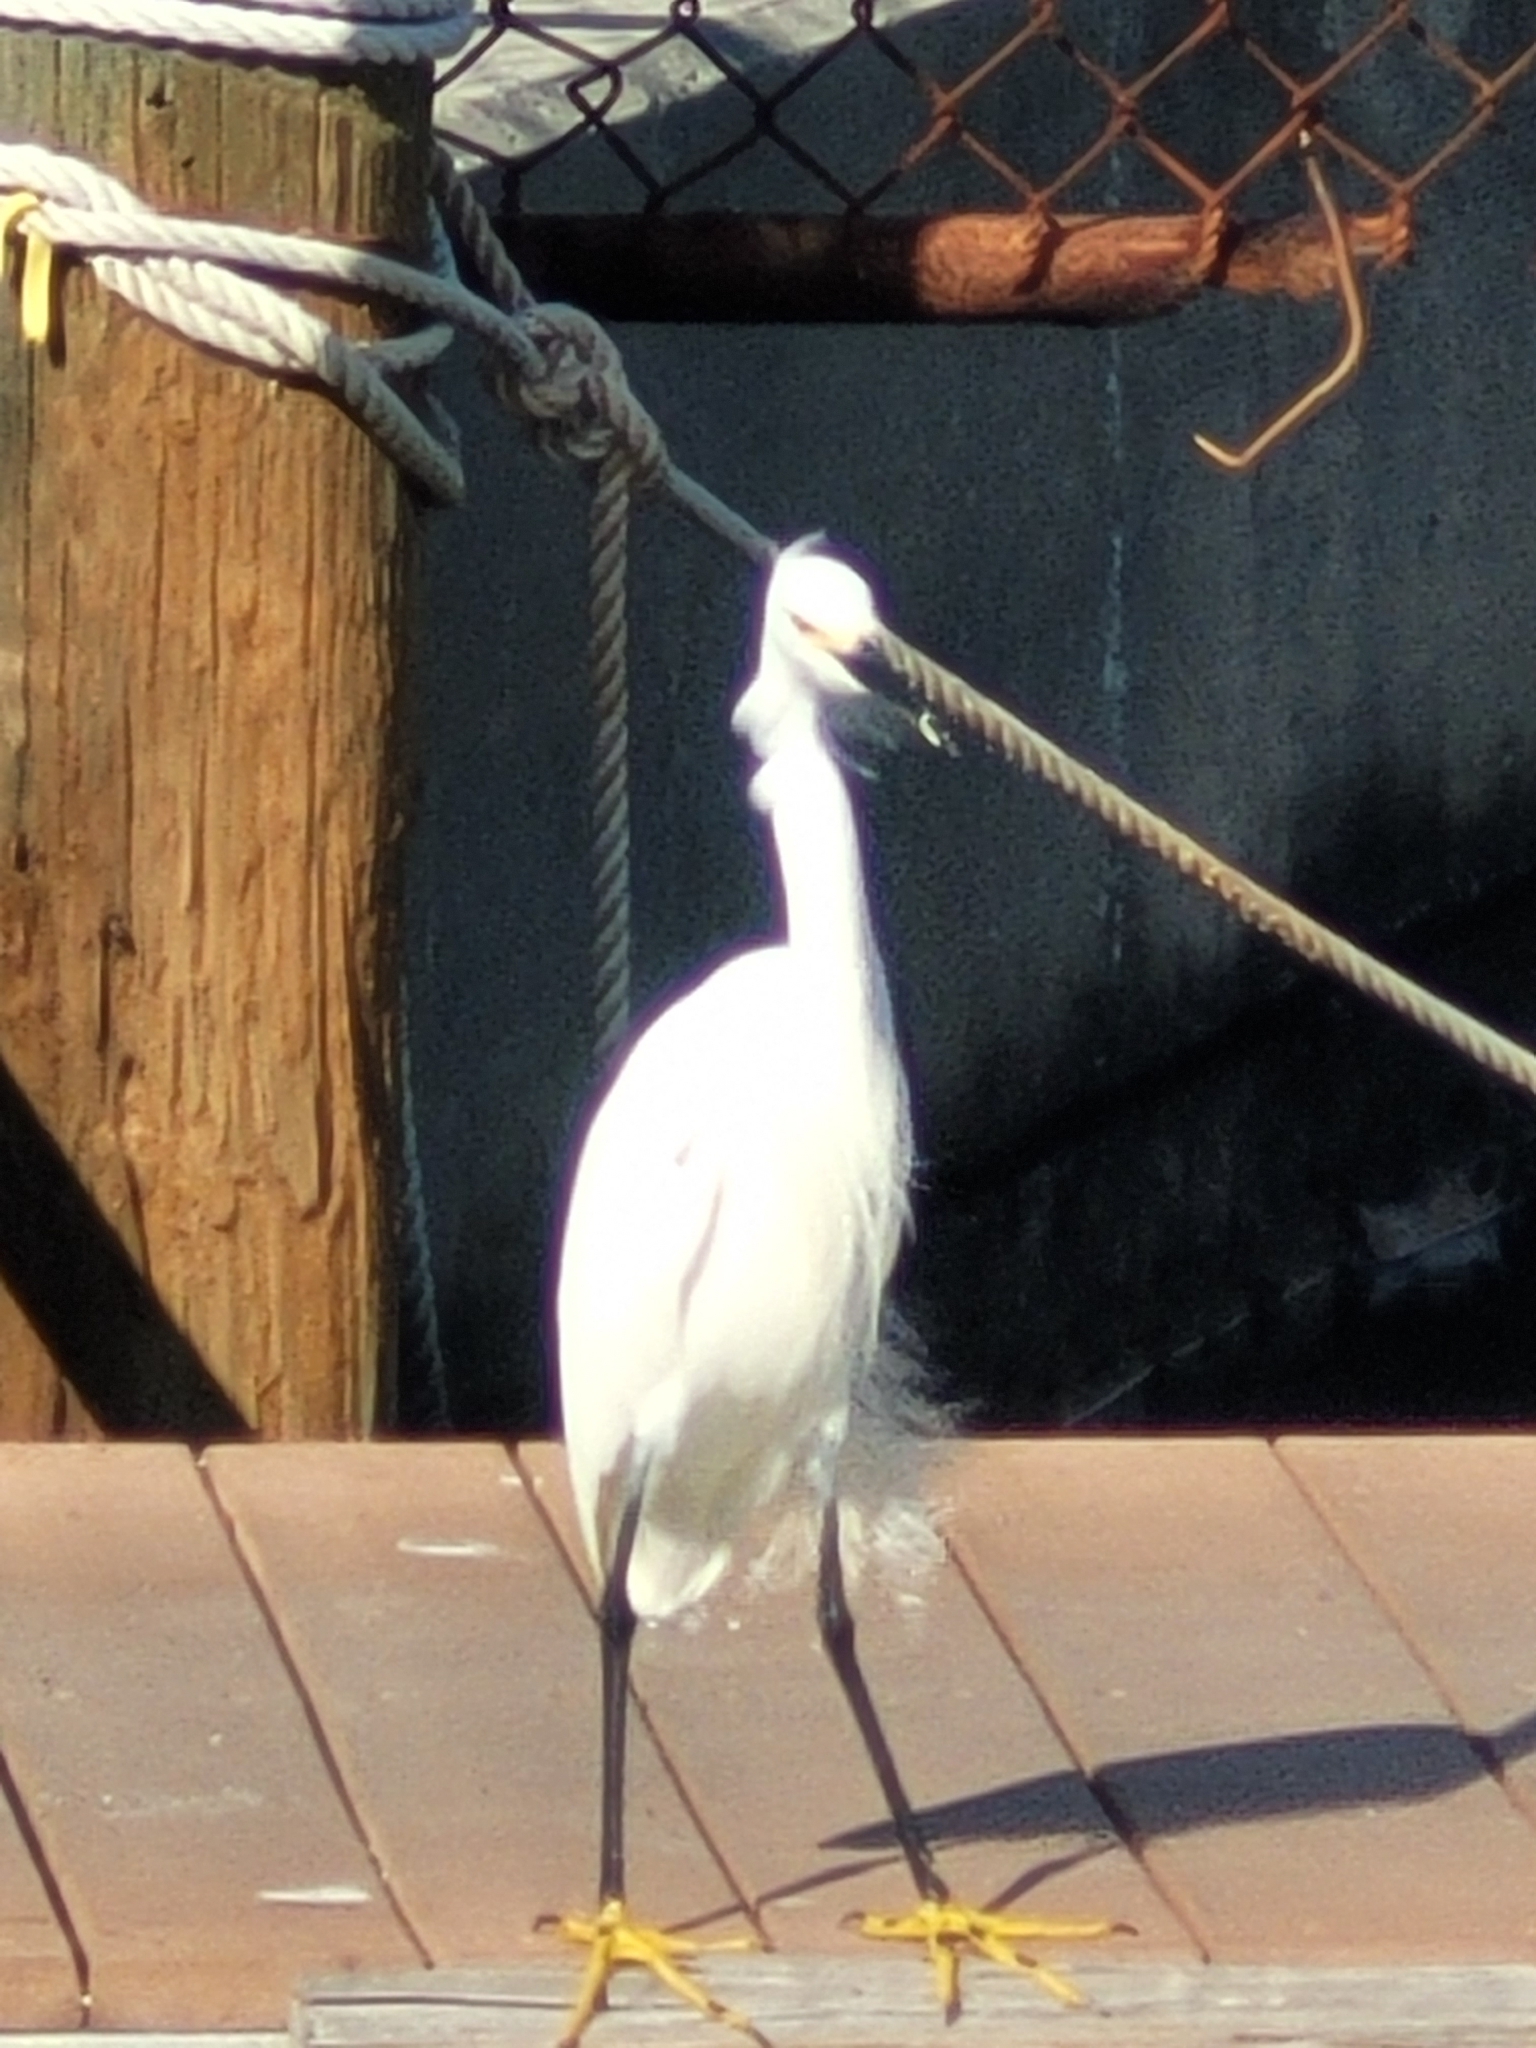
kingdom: Animalia
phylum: Chordata
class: Aves
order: Pelecaniformes
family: Ardeidae
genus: Egretta
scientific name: Egretta thula
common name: Snowy egret
